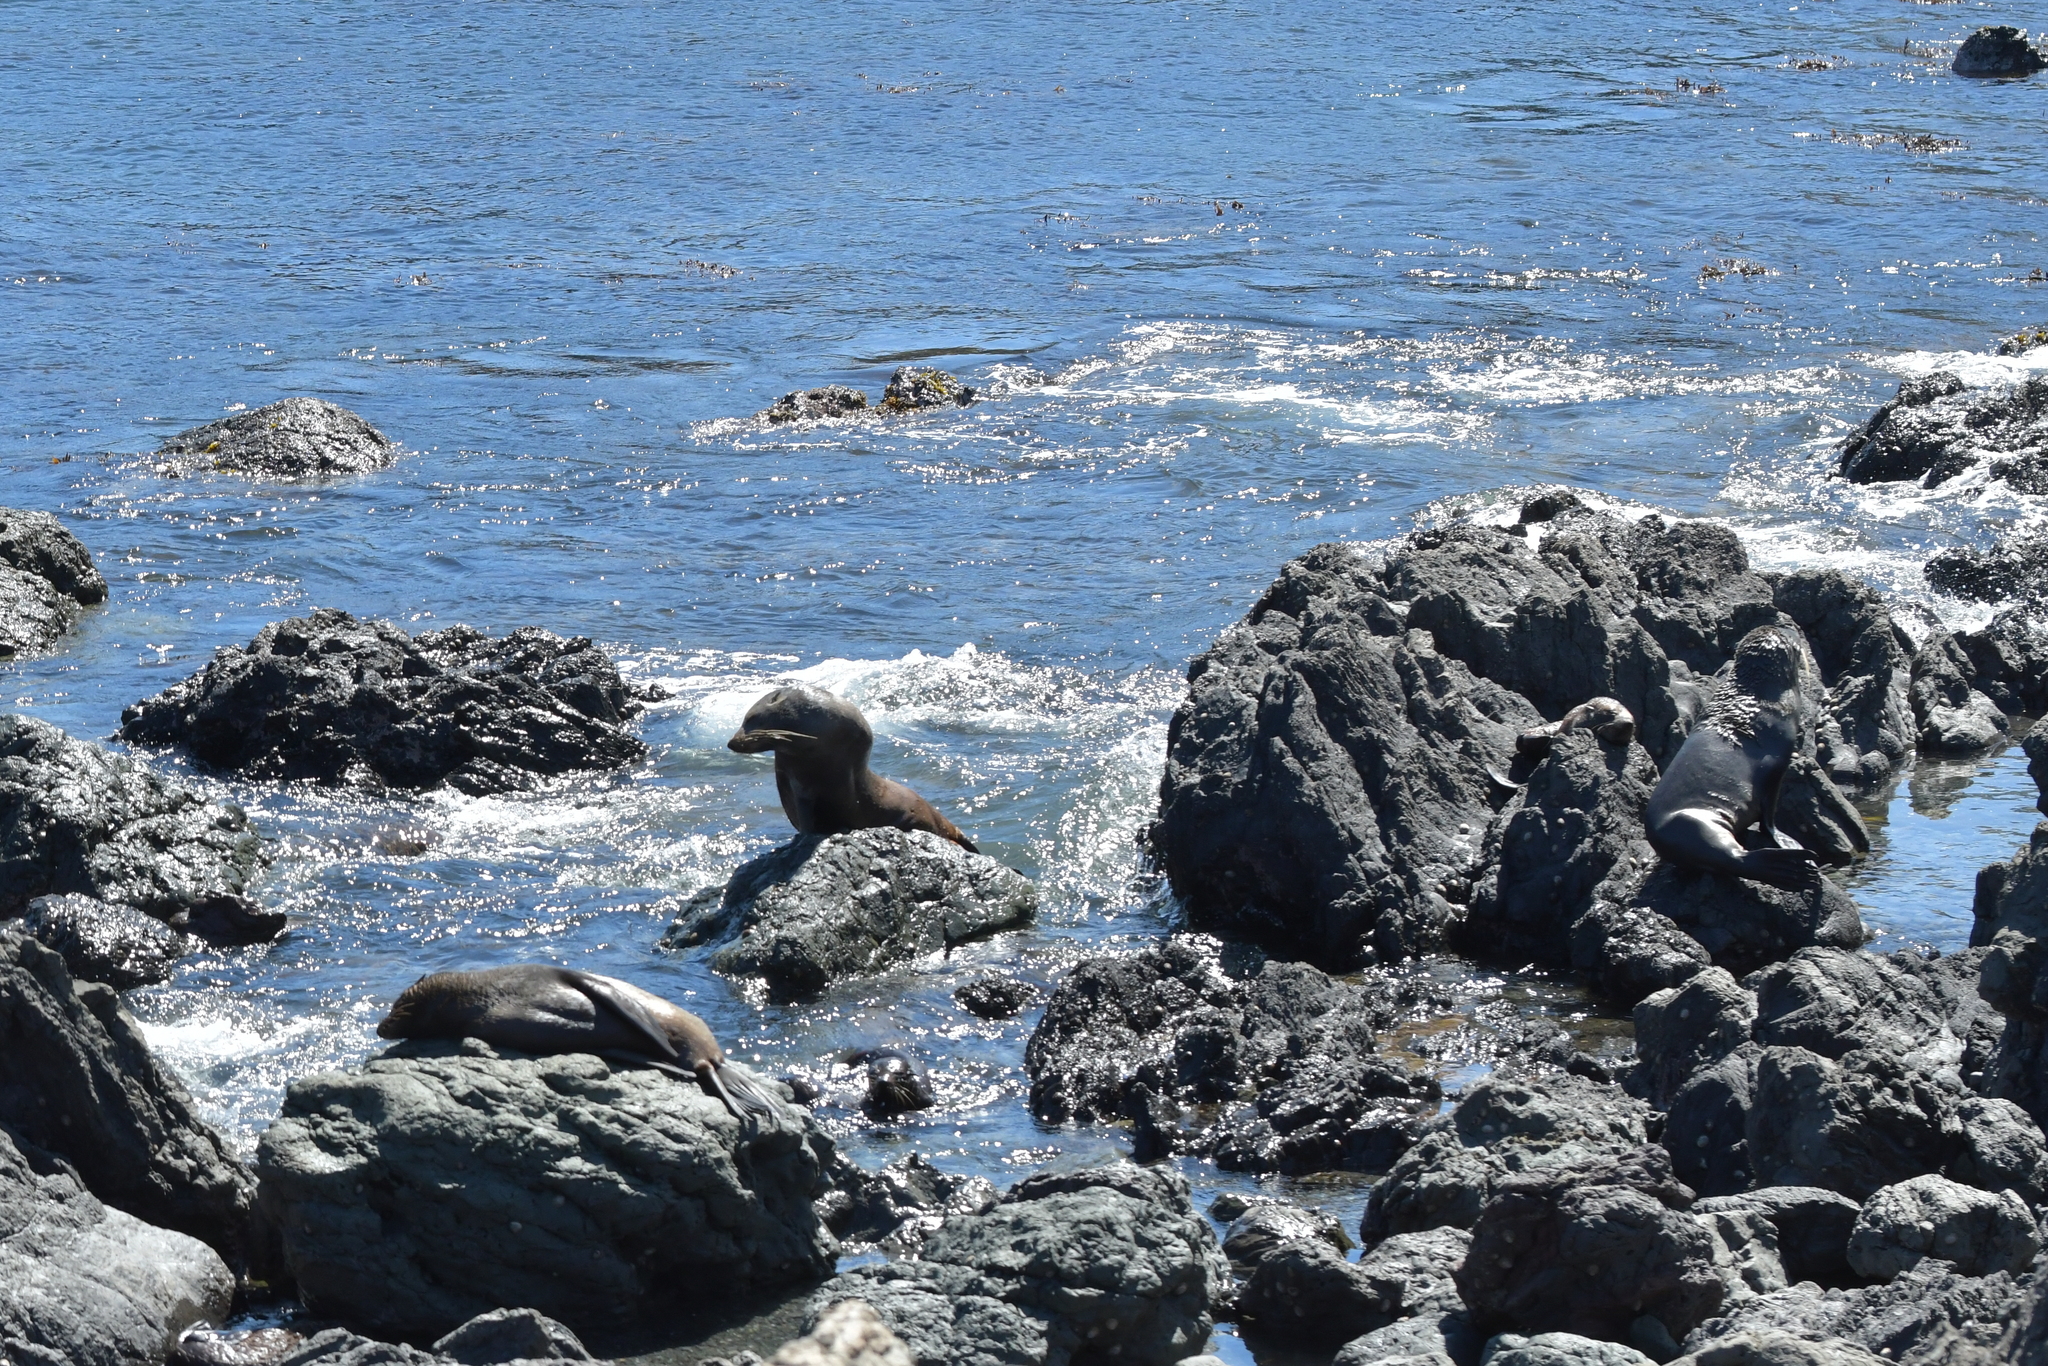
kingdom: Animalia
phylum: Chordata
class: Mammalia
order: Carnivora
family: Otariidae
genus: Arctocephalus
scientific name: Arctocephalus forsteri
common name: New zealand fur seal
